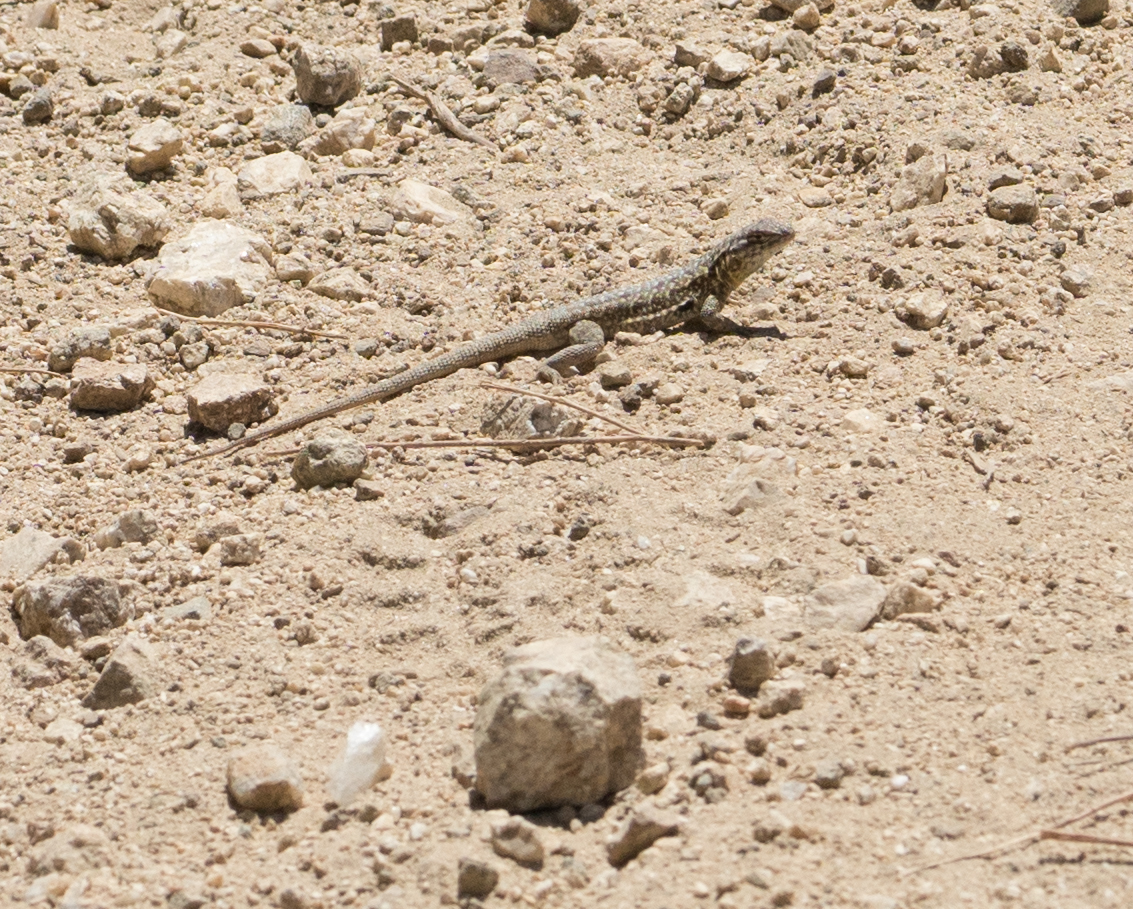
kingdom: Animalia
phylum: Chordata
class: Squamata
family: Phrynosomatidae
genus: Uta
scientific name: Uta stansburiana
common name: Side-blotched lizard
